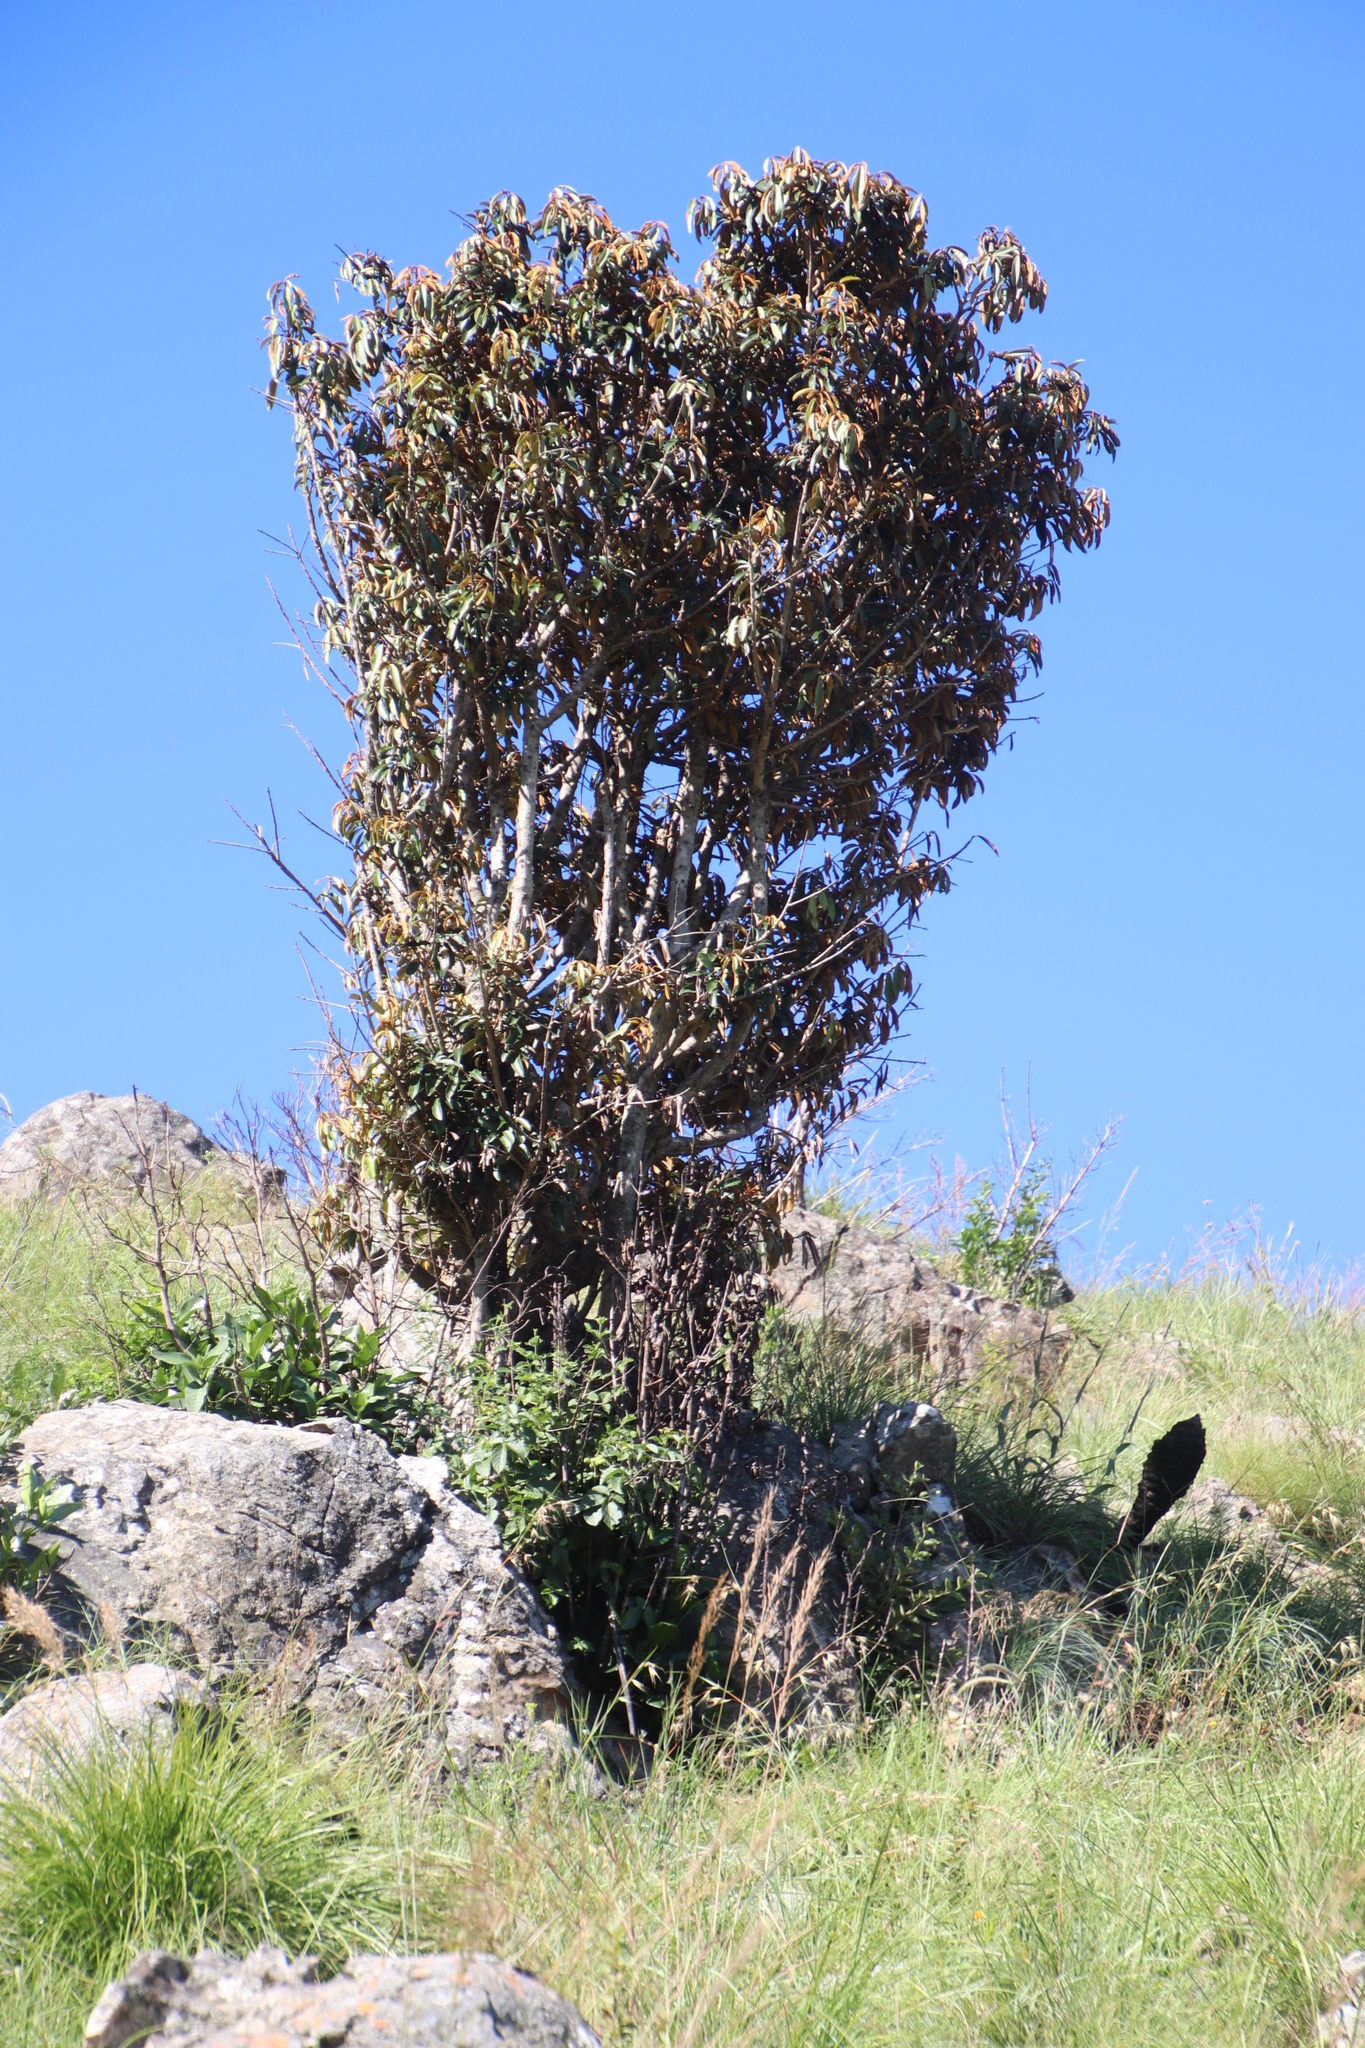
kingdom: Plantae
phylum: Tracheophyta
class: Magnoliopsida
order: Ericales
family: Sapotaceae
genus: Englerophytum
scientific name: Englerophytum magalismontanum
